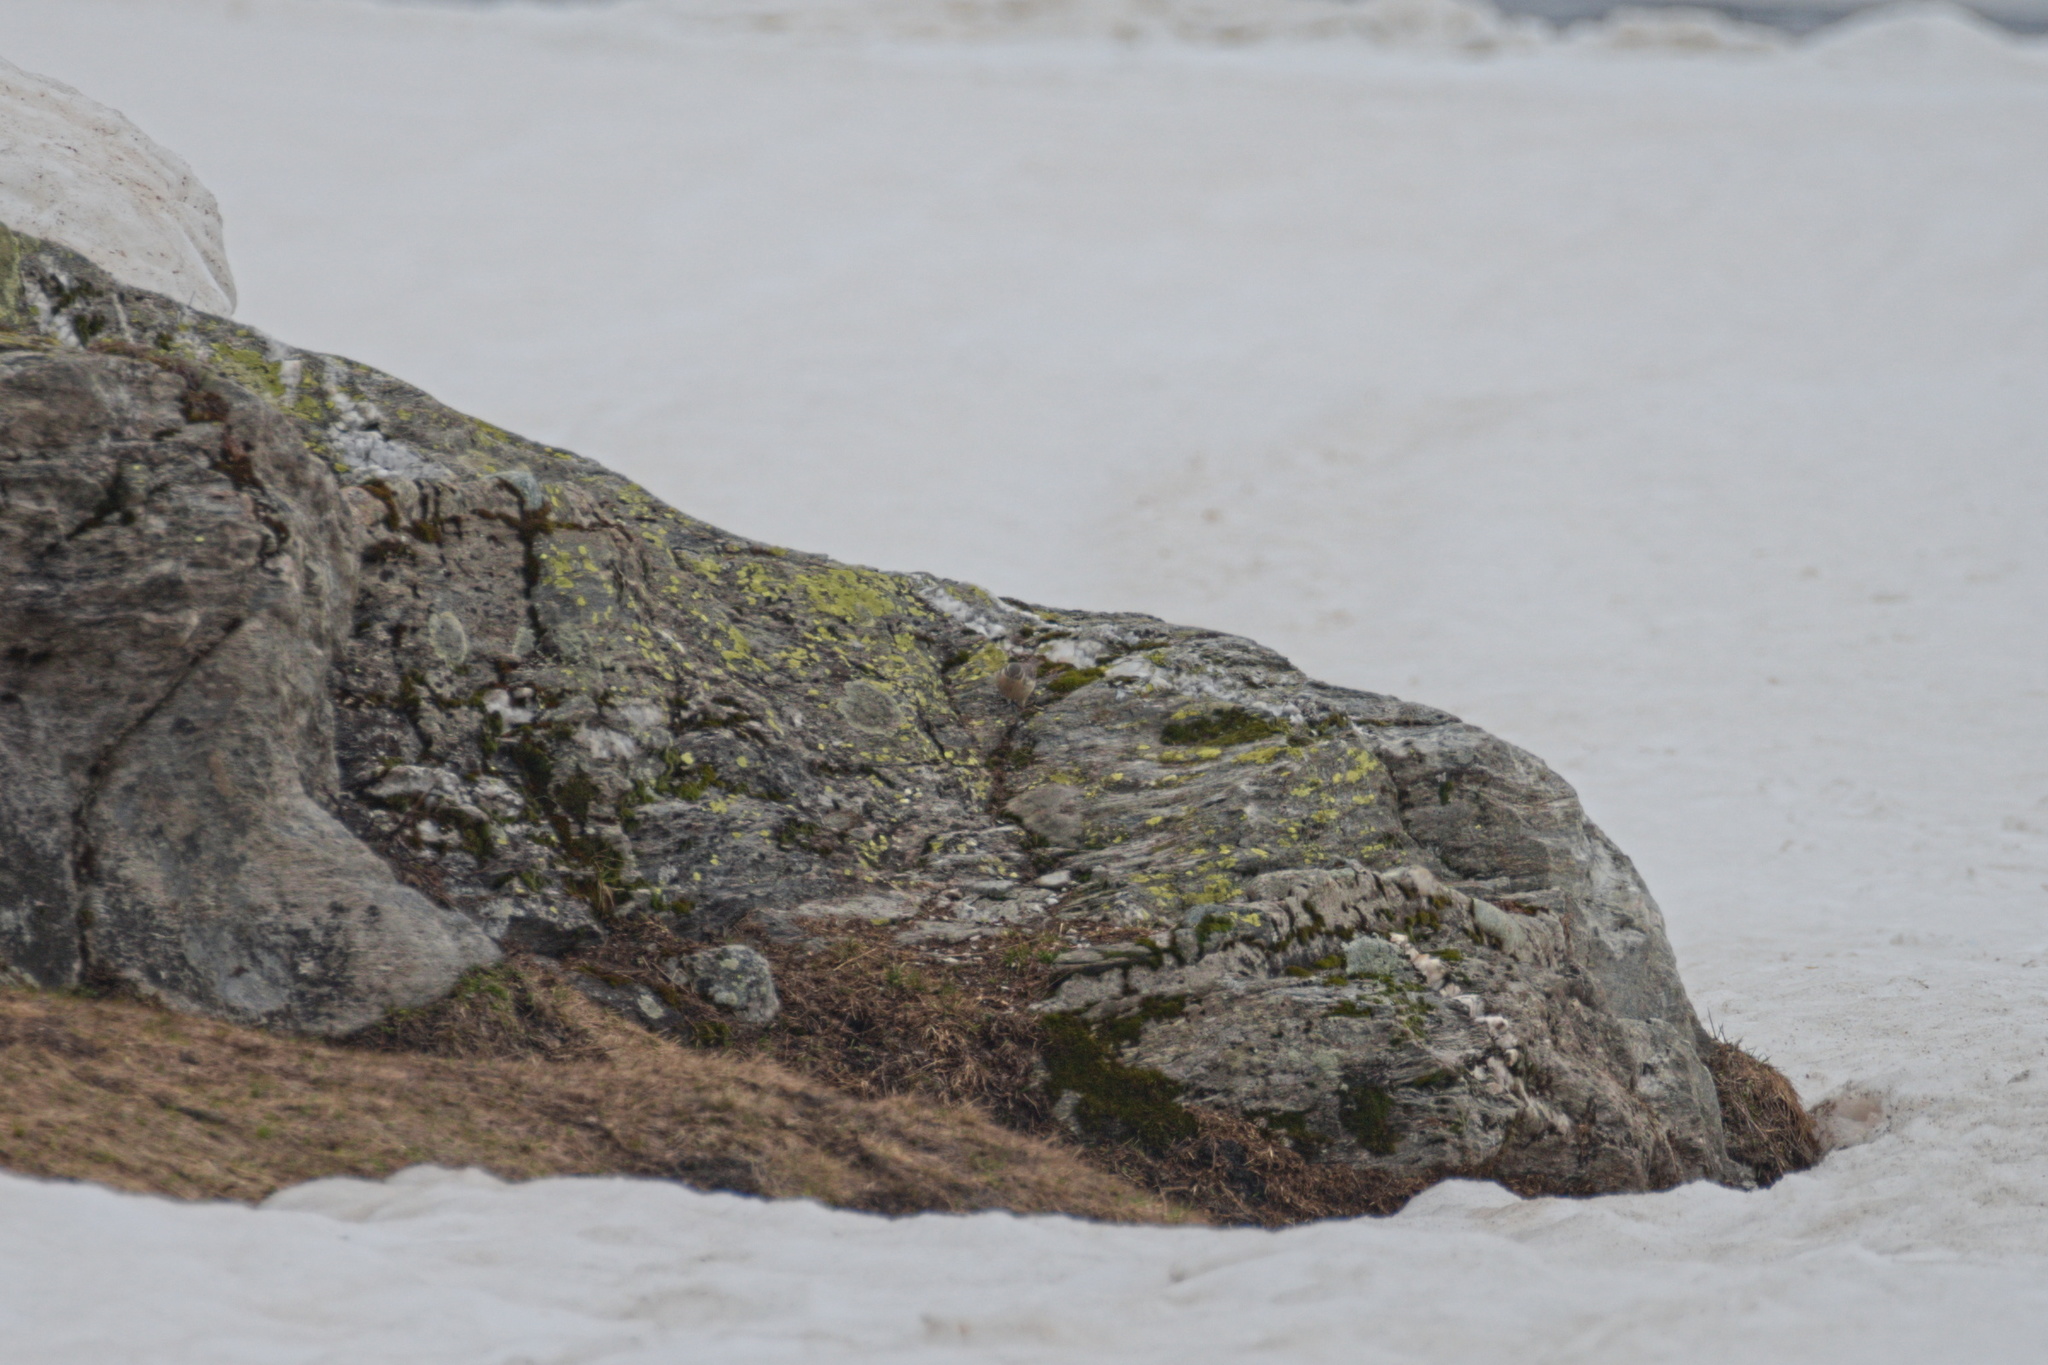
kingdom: Animalia
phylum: Chordata
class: Aves
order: Passeriformes
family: Muscicapidae
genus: Oenanthe
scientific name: Oenanthe oenanthe
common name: Northern wheatear
